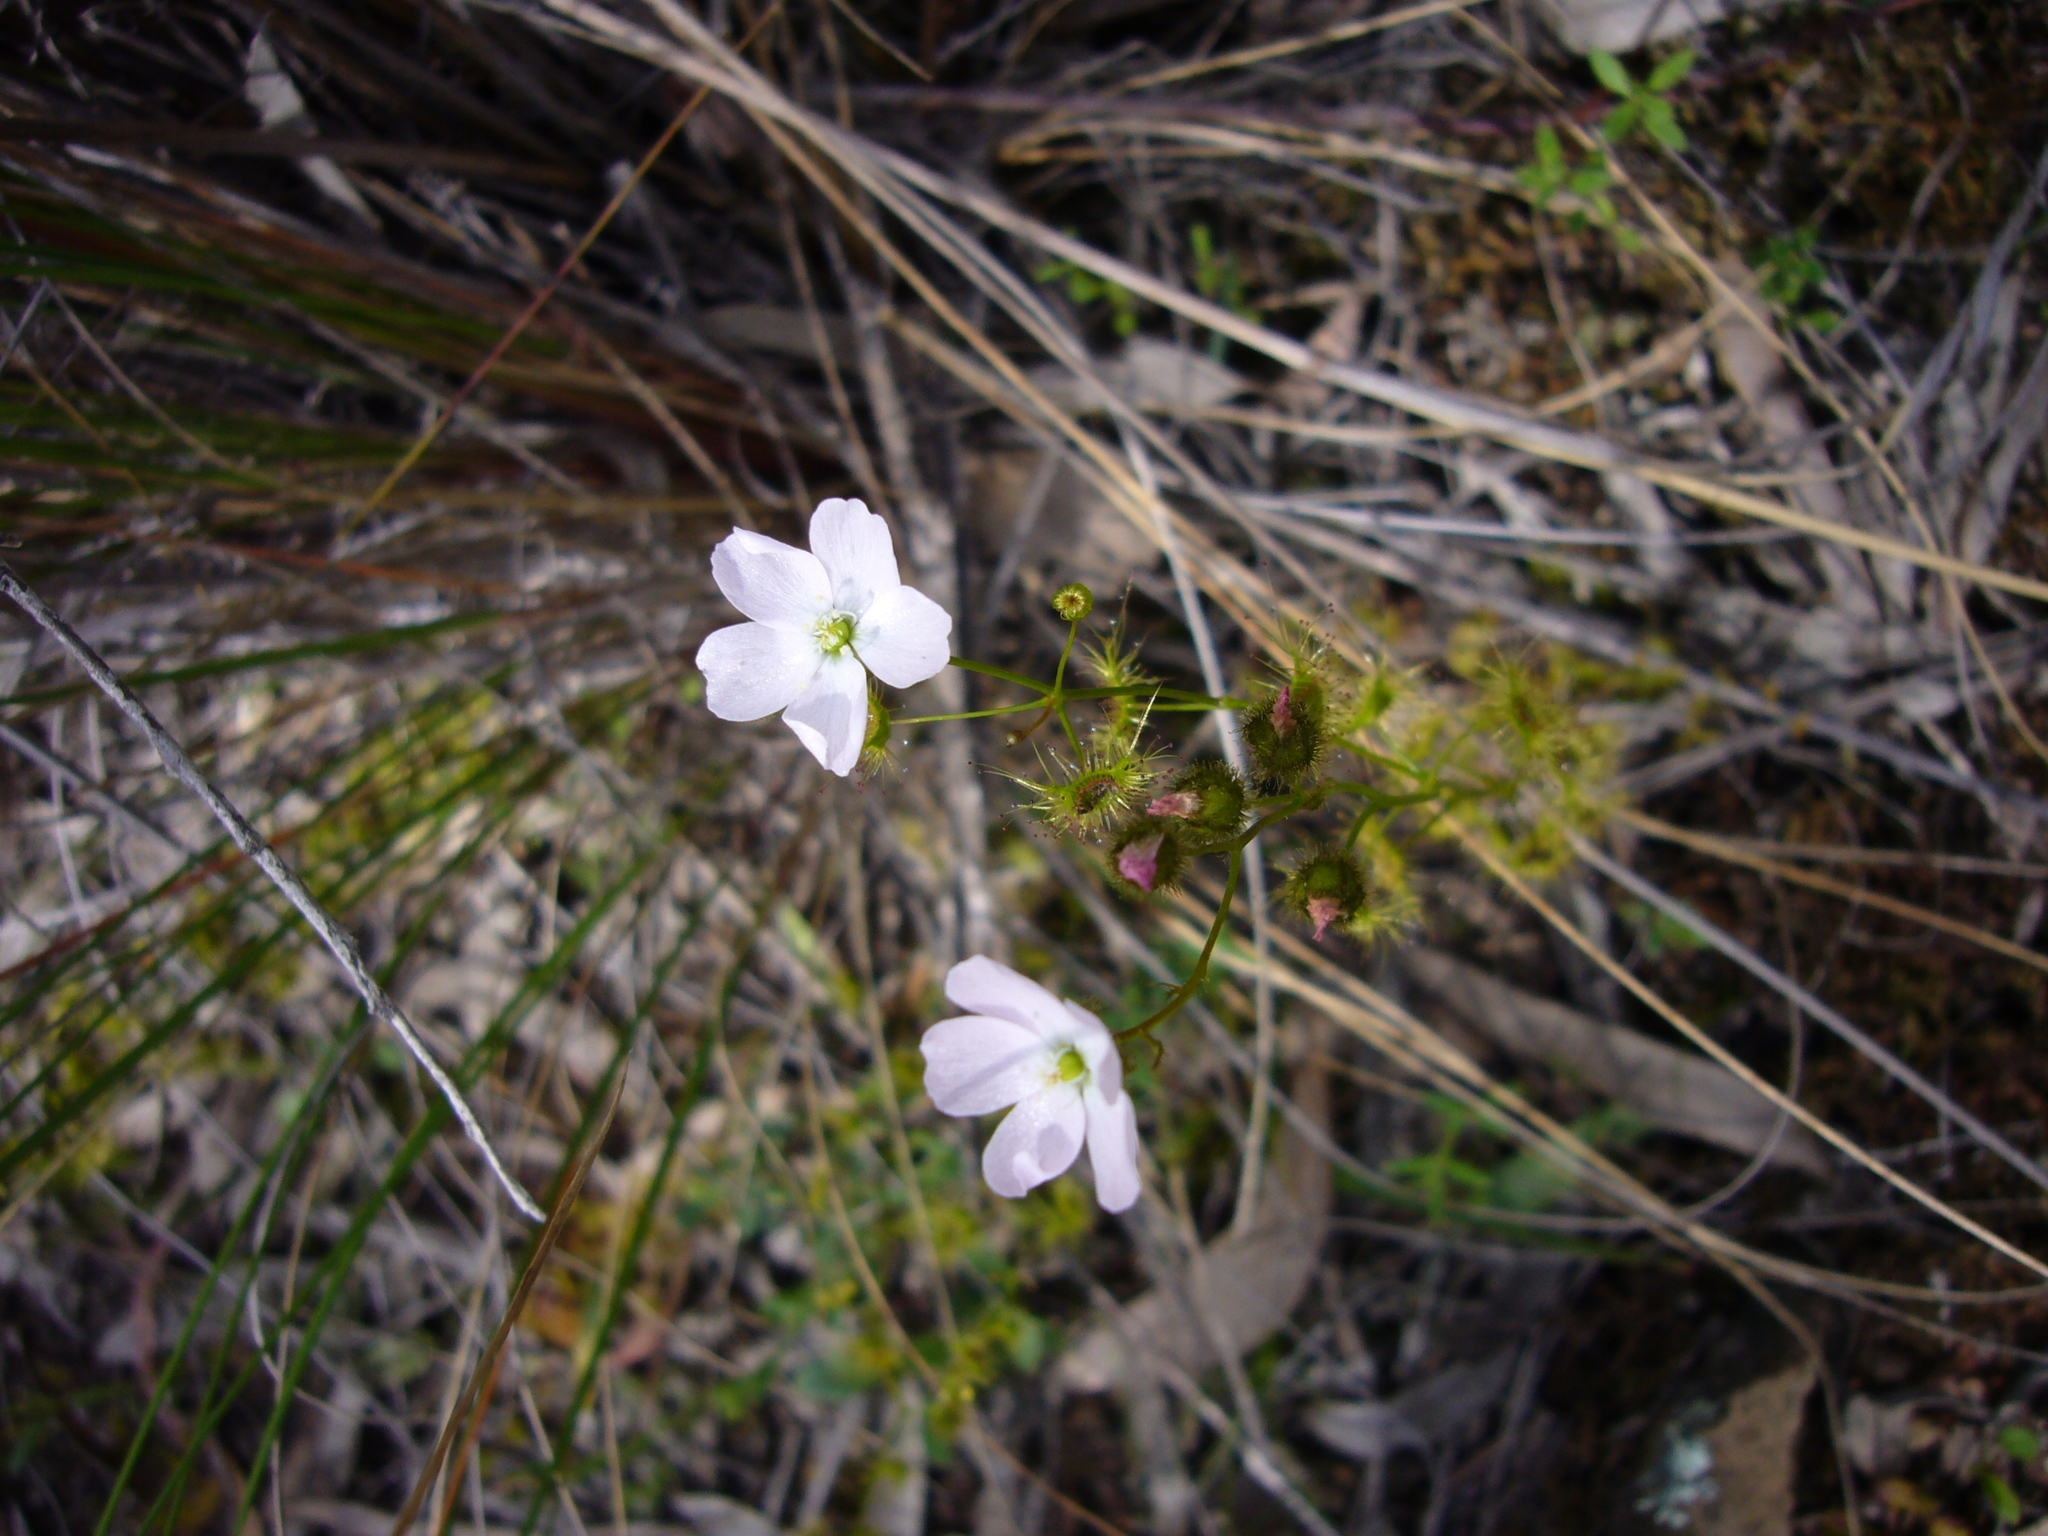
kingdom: Plantae
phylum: Tracheophyta
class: Magnoliopsida
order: Caryophyllales
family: Droseraceae
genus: Drosera
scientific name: Drosera gunniana
